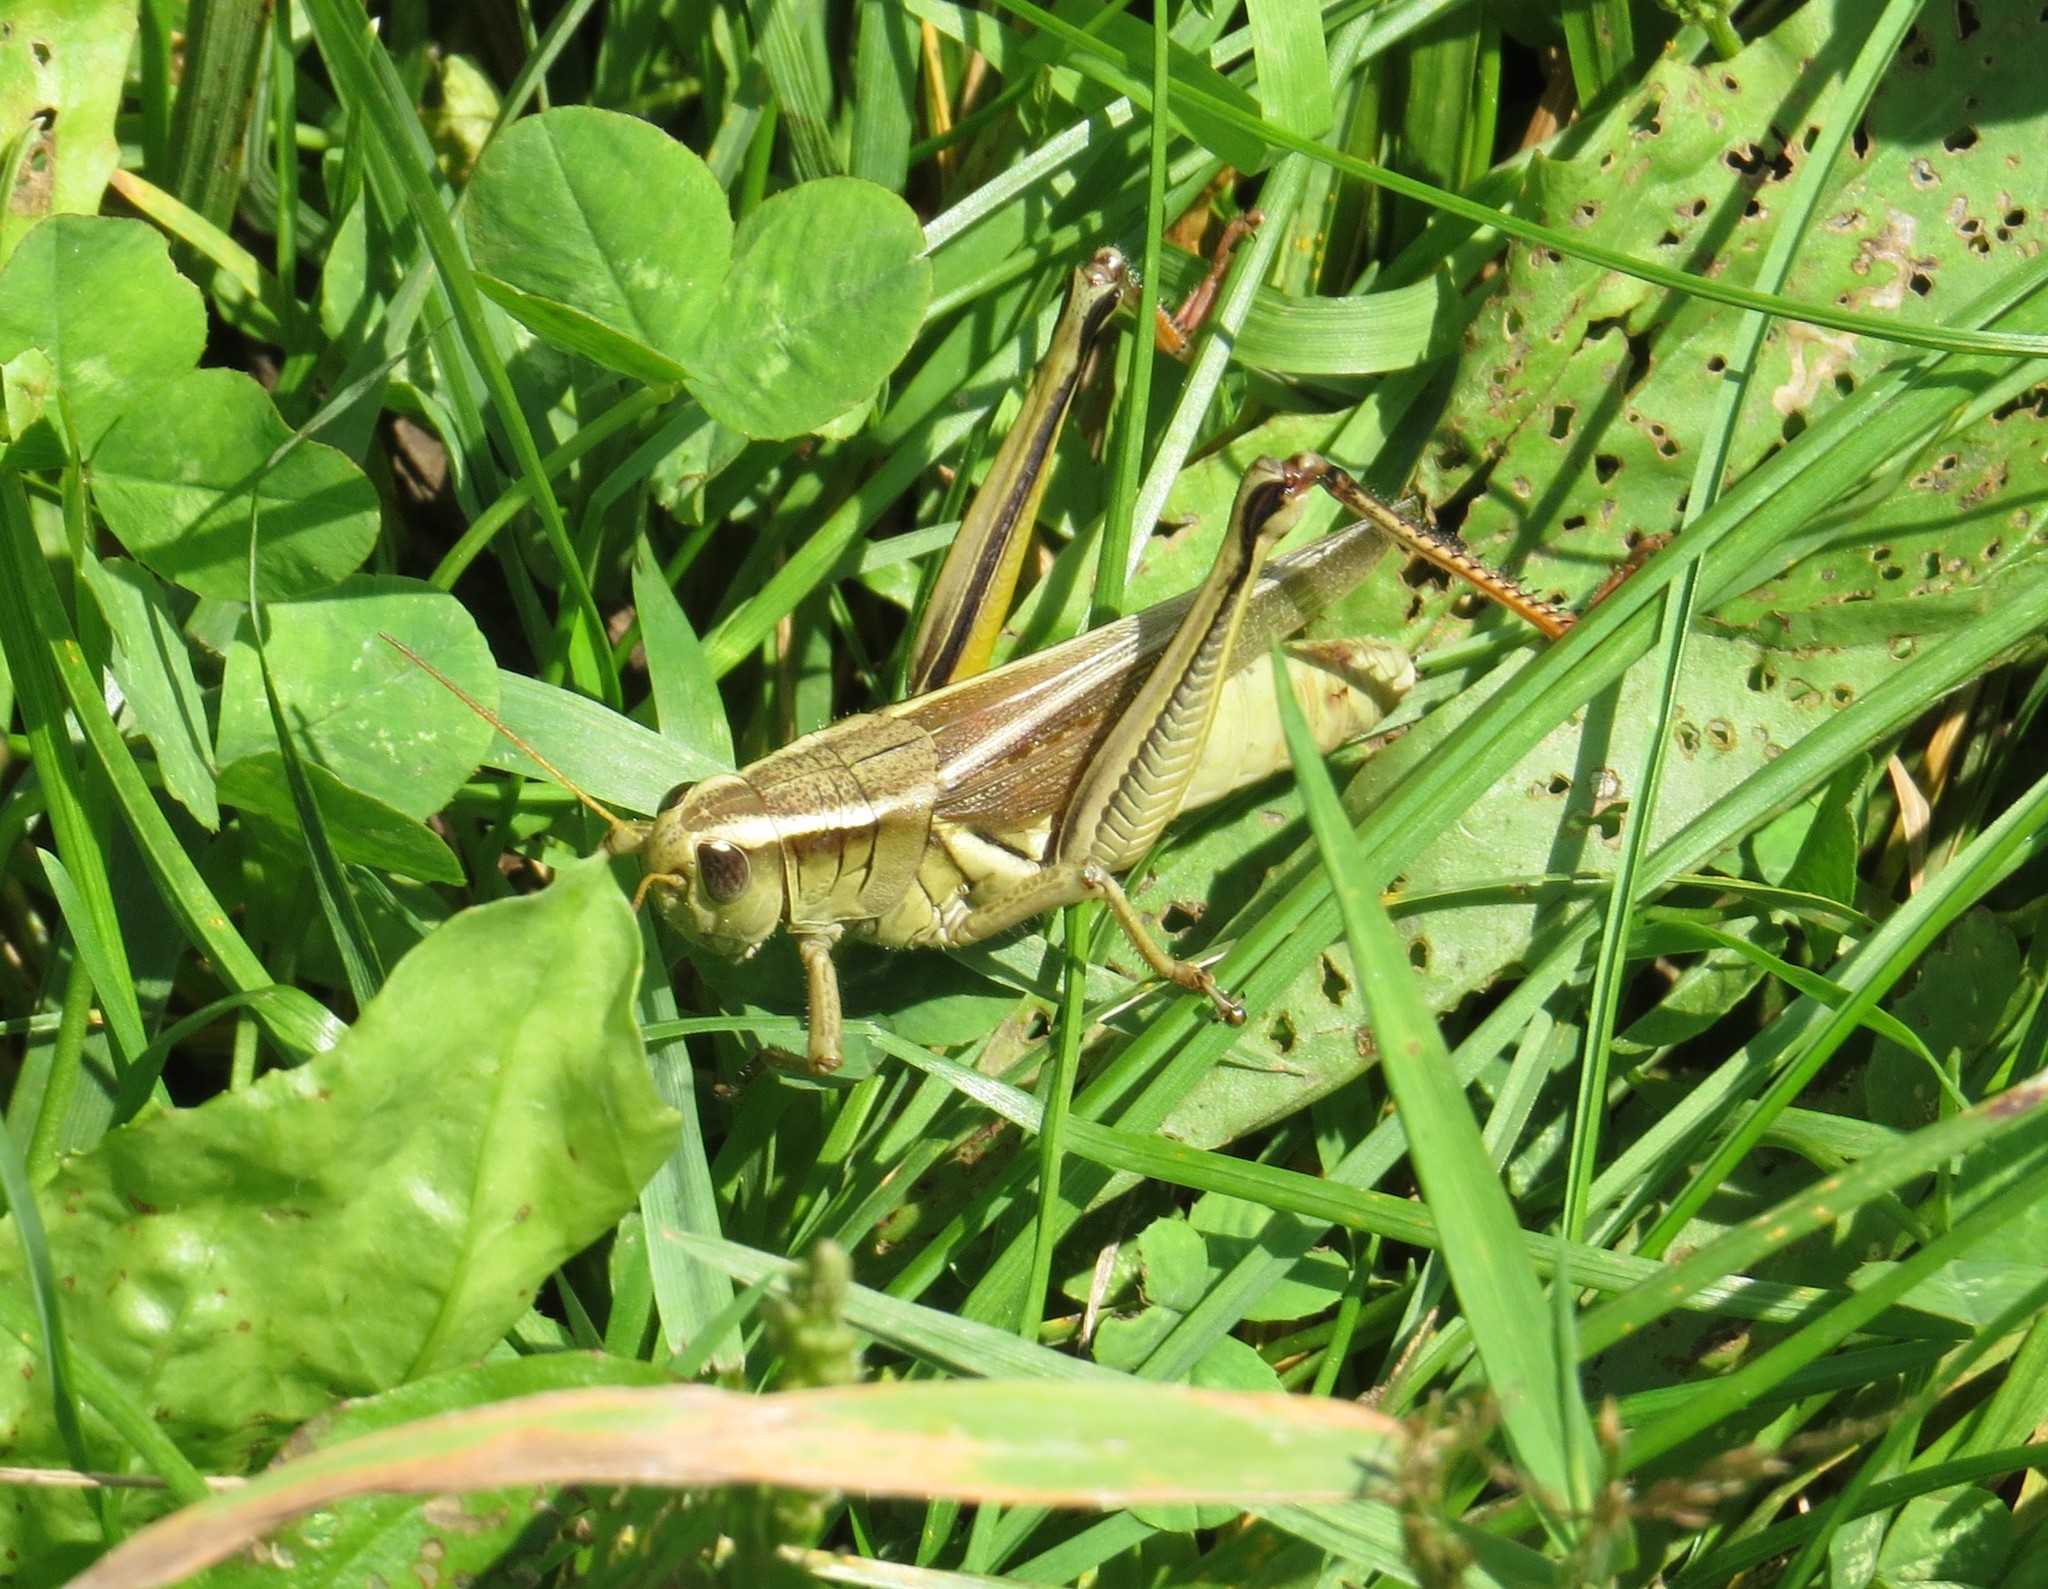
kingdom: Animalia
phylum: Arthropoda
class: Insecta
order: Orthoptera
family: Acrididae
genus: Melanoplus
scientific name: Melanoplus bivittatus
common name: Two-striped grasshopper
